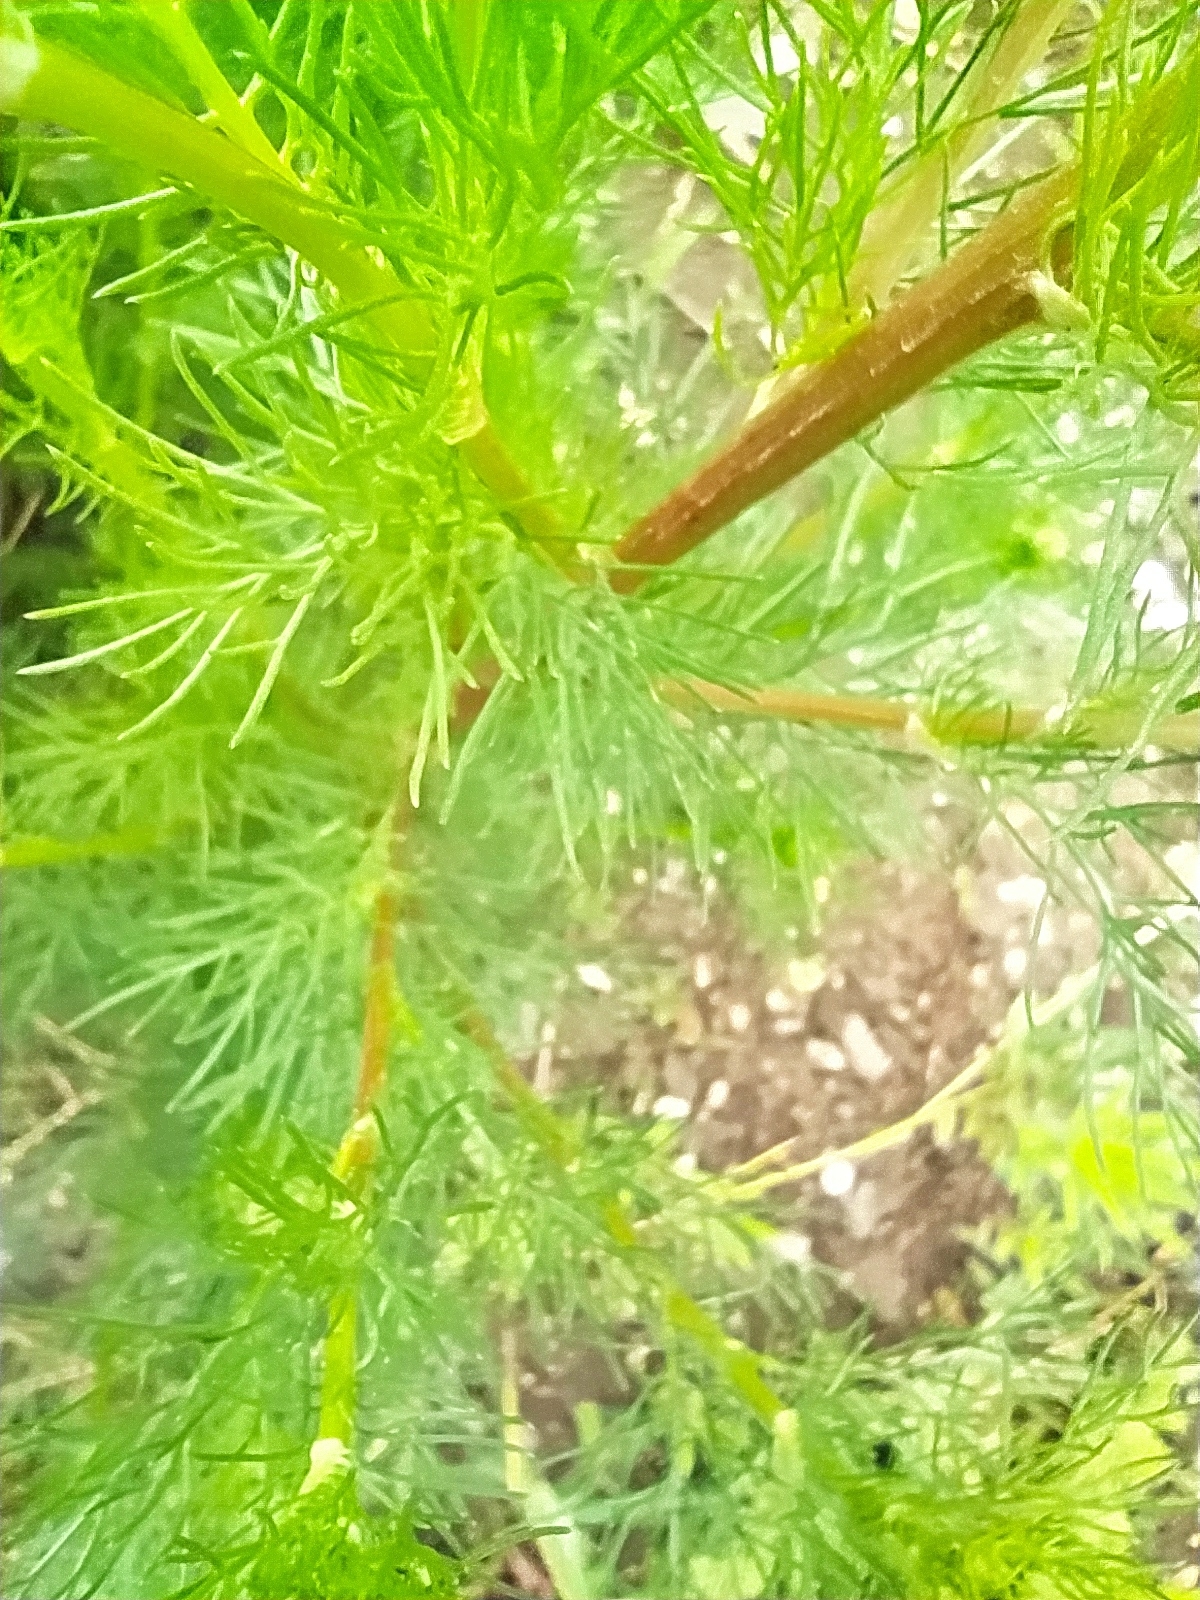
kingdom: Plantae
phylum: Tracheophyta
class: Magnoliopsida
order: Asterales
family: Asteraceae
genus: Tripleurospermum
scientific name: Tripleurospermum inodorum
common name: Scentless mayweed
